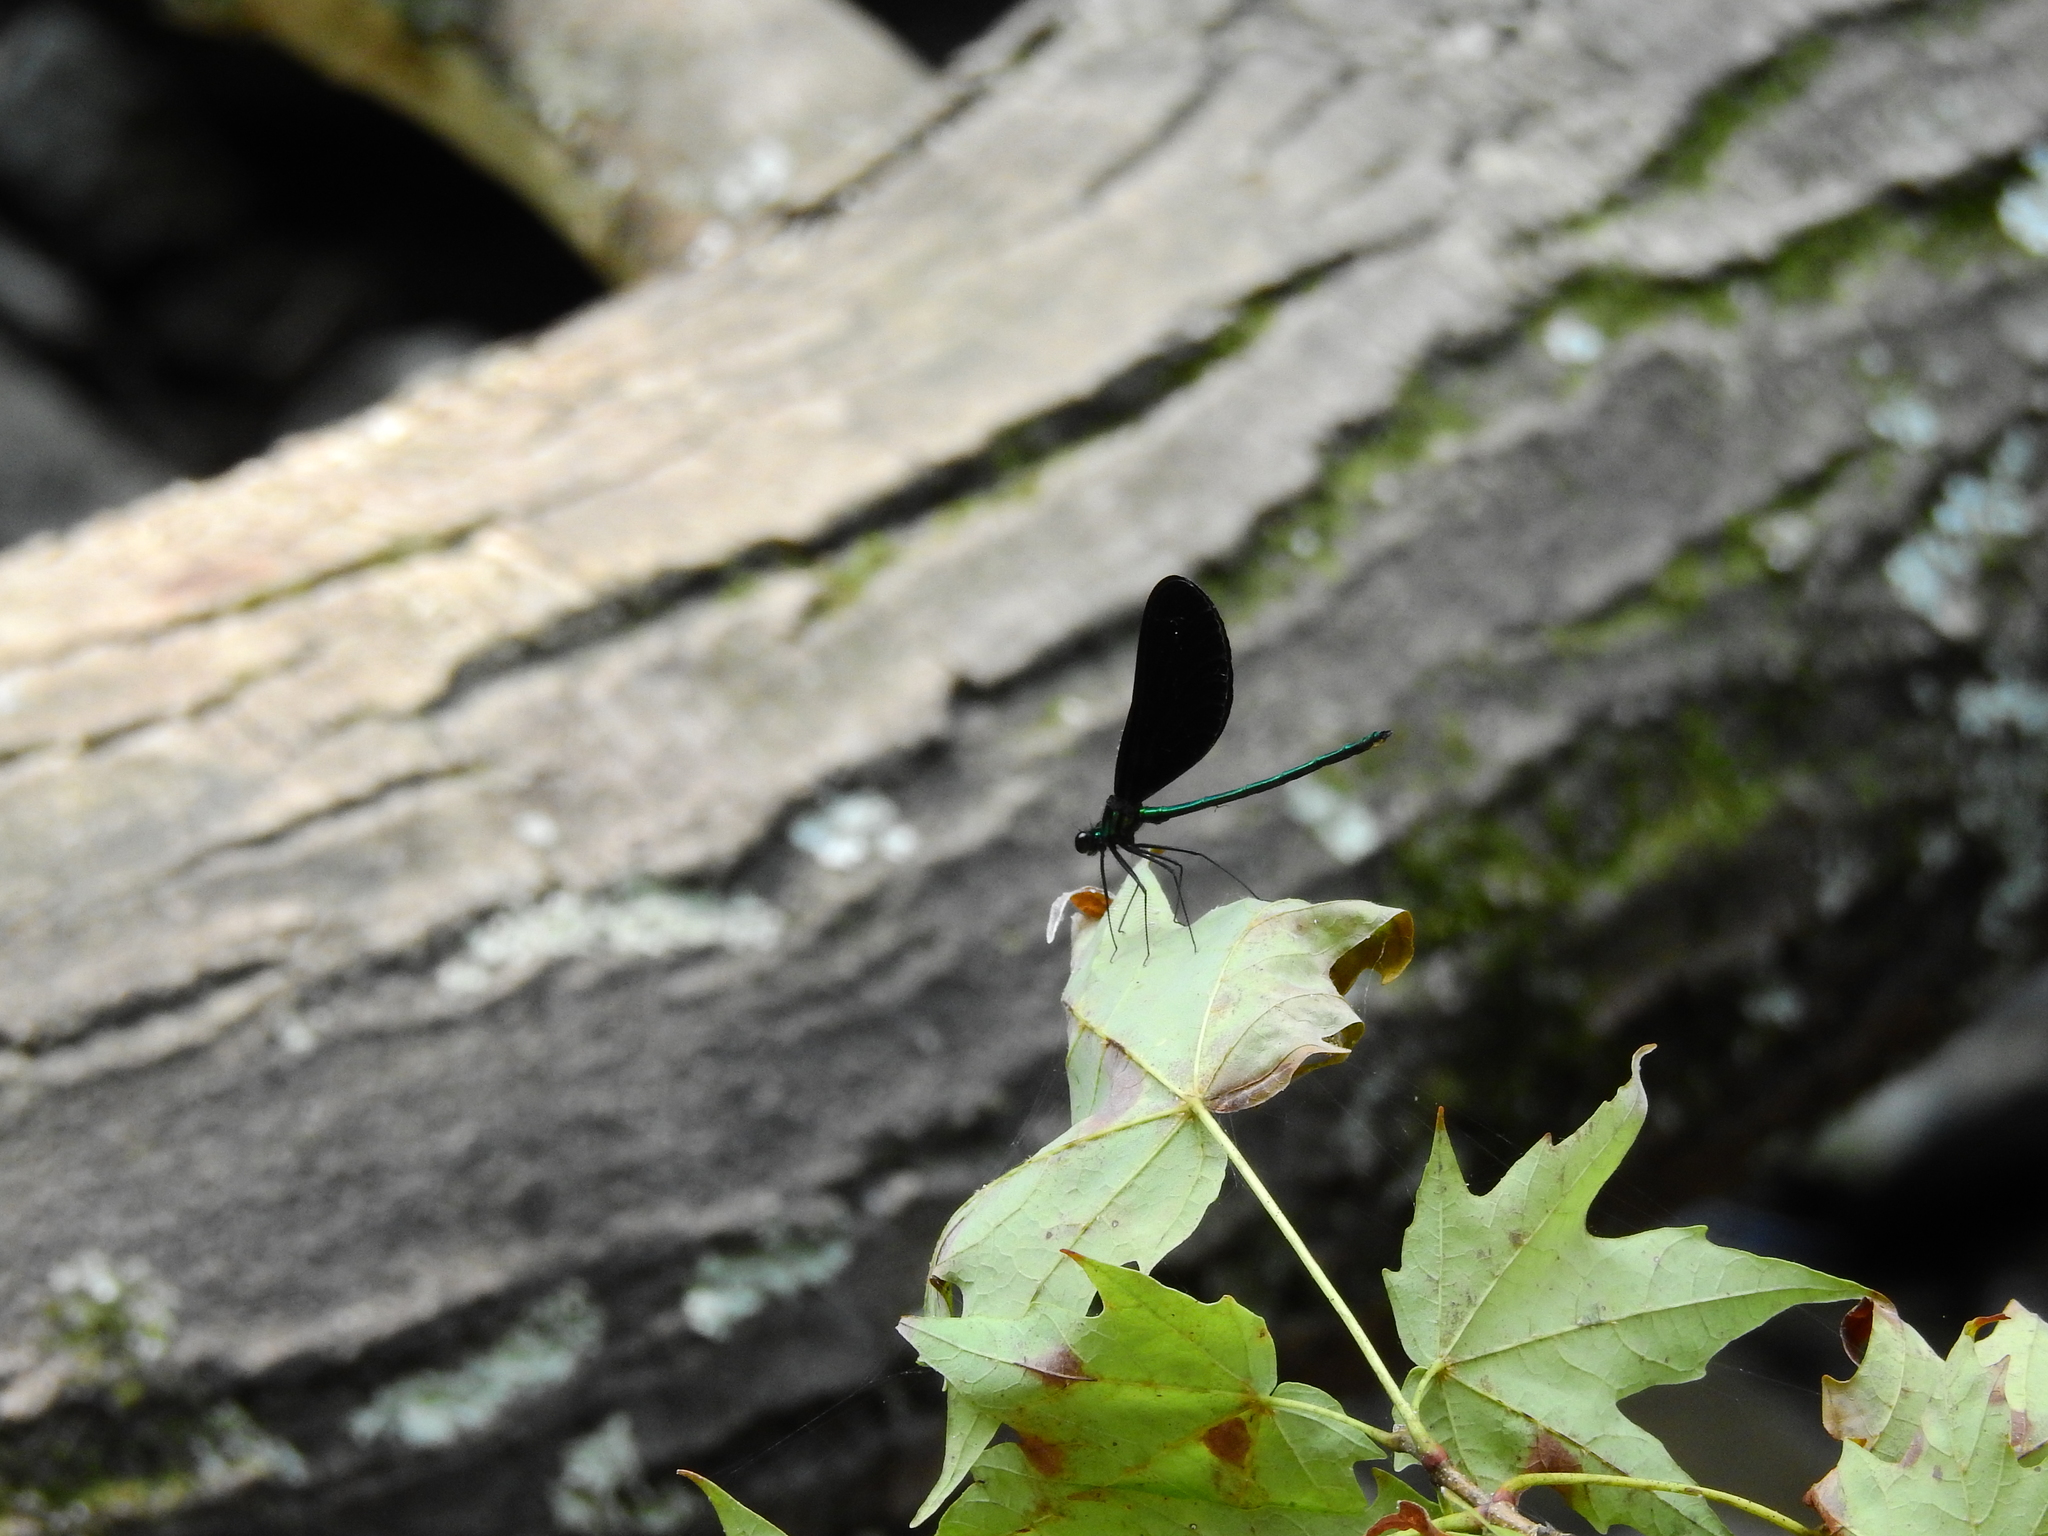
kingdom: Animalia
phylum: Arthropoda
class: Insecta
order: Odonata
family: Calopterygidae
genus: Calopteryx
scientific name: Calopteryx maculata
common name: Ebony jewelwing
